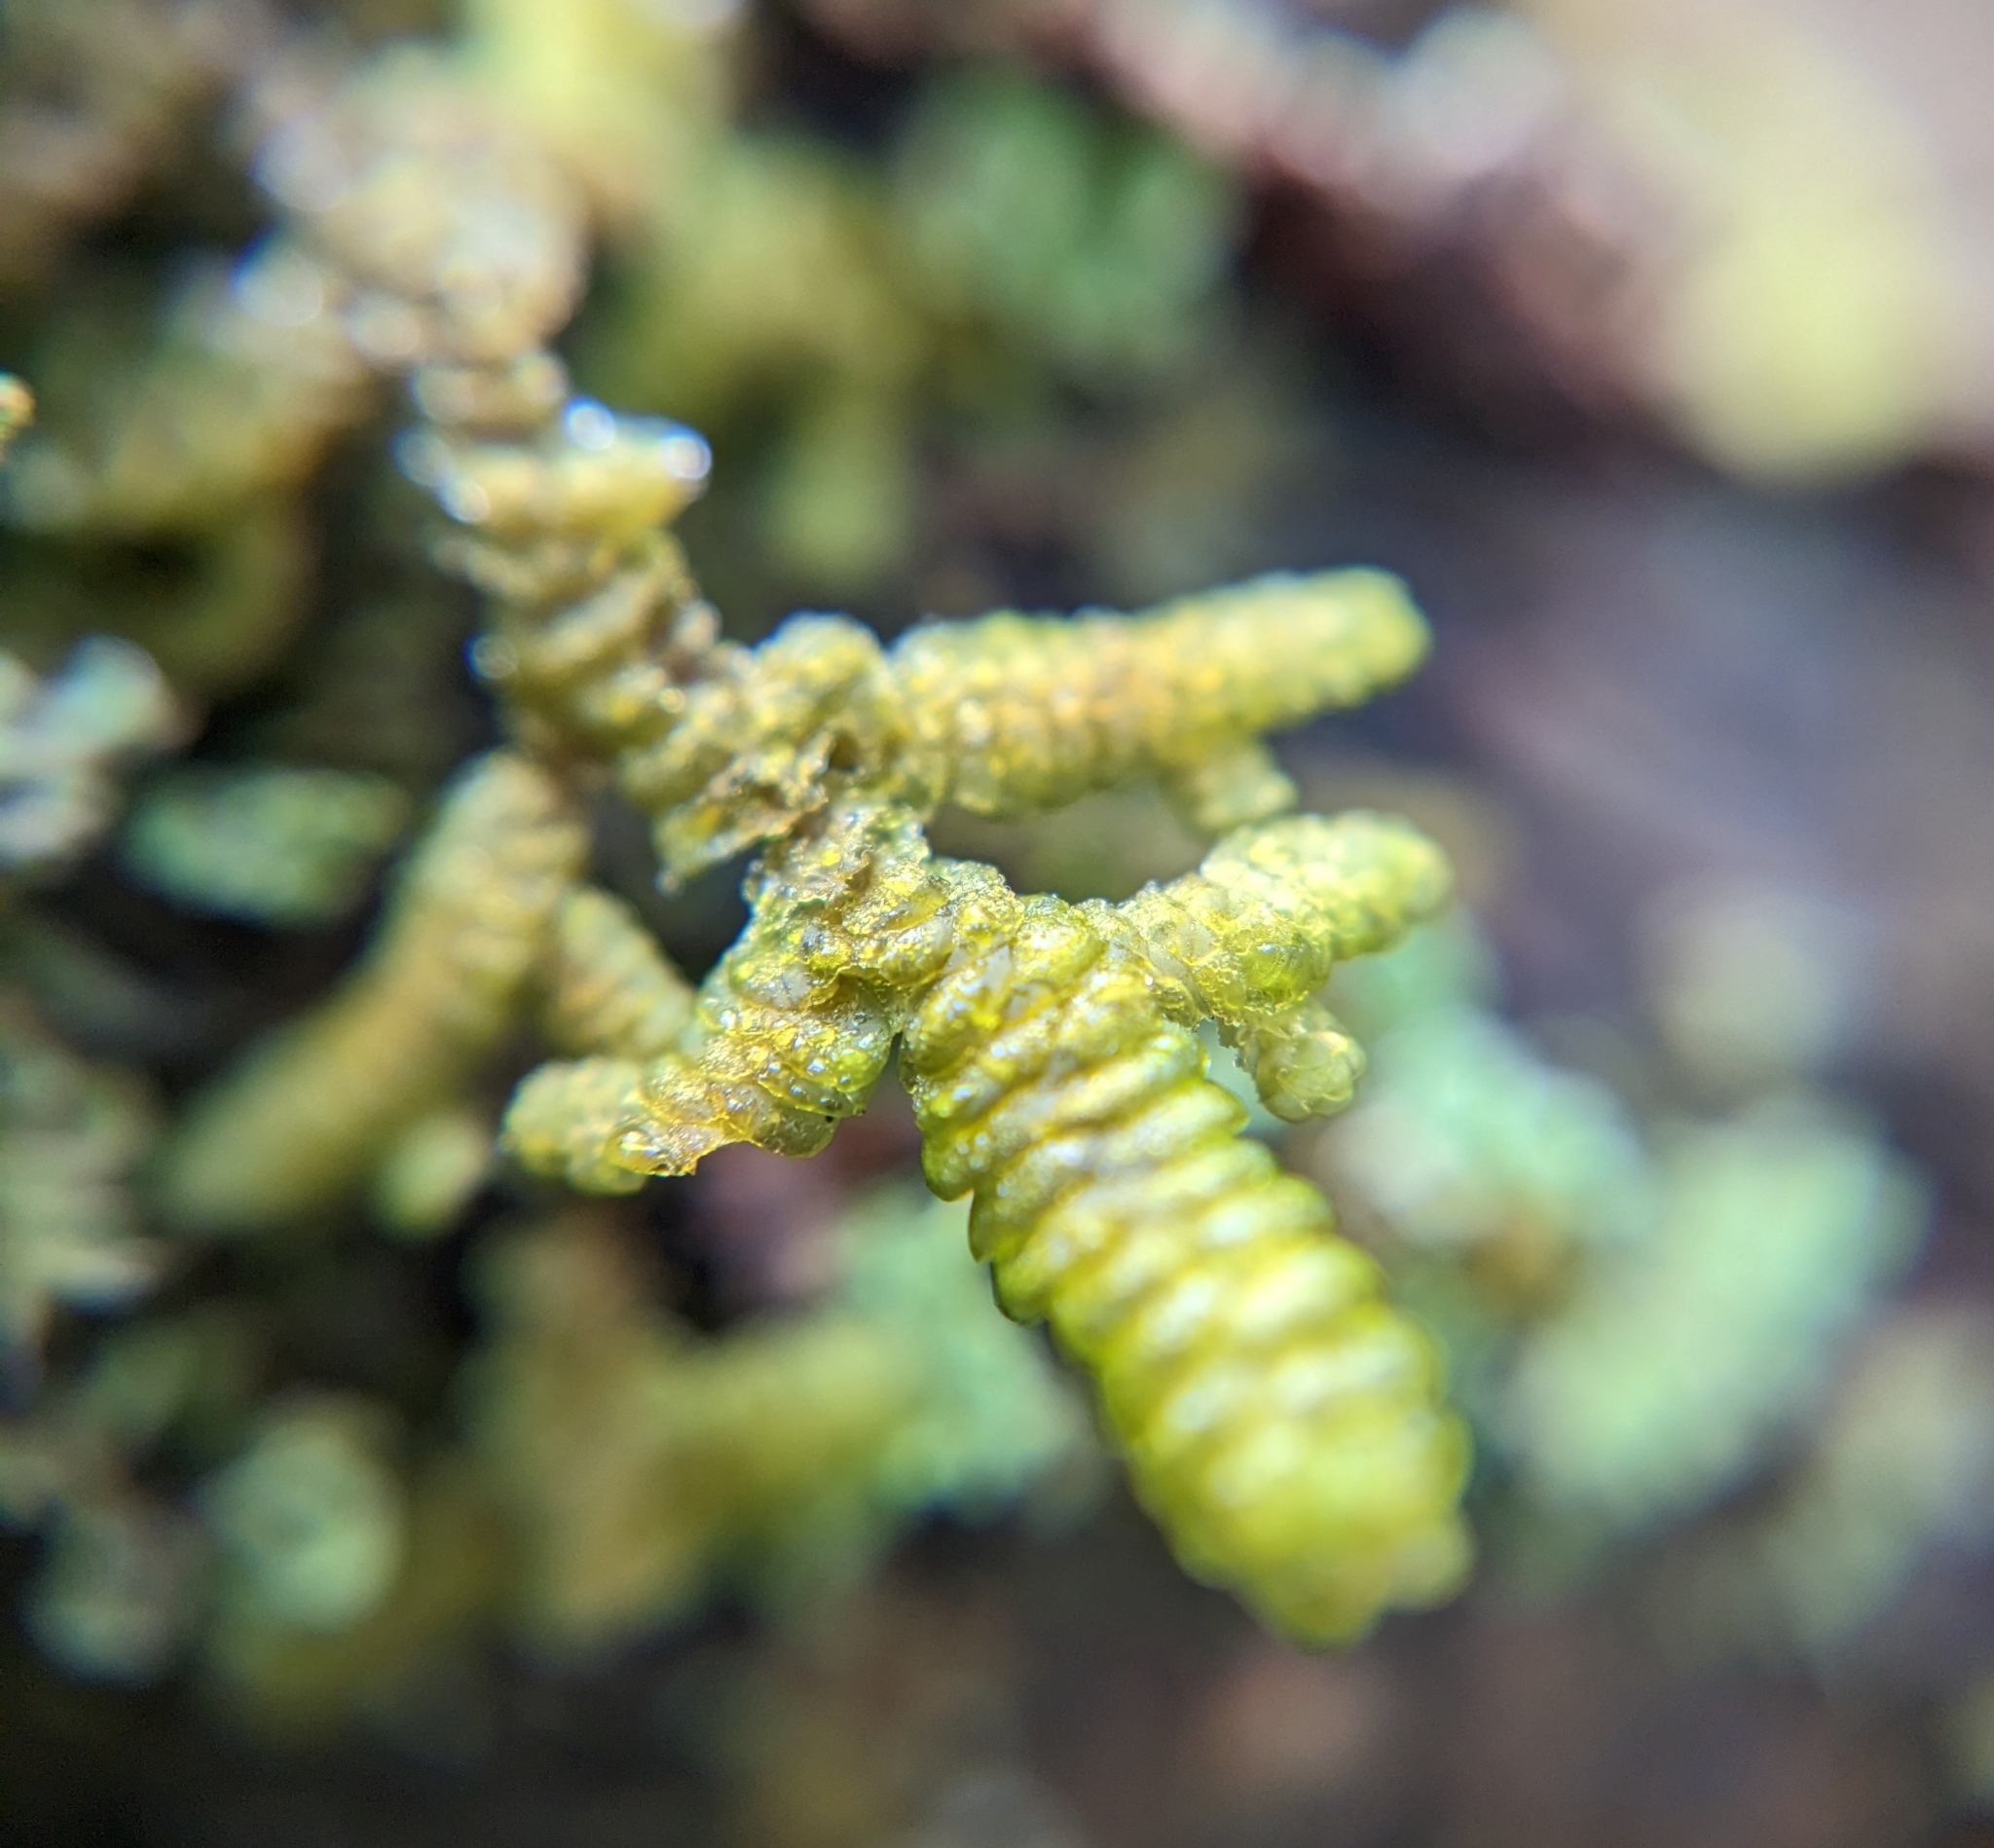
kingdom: Plantae
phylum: Marchantiophyta
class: Jungermanniopsida
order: Porellales
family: Porellaceae
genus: Porella
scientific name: Porella navicularis
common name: Tree ruffle liverwort
